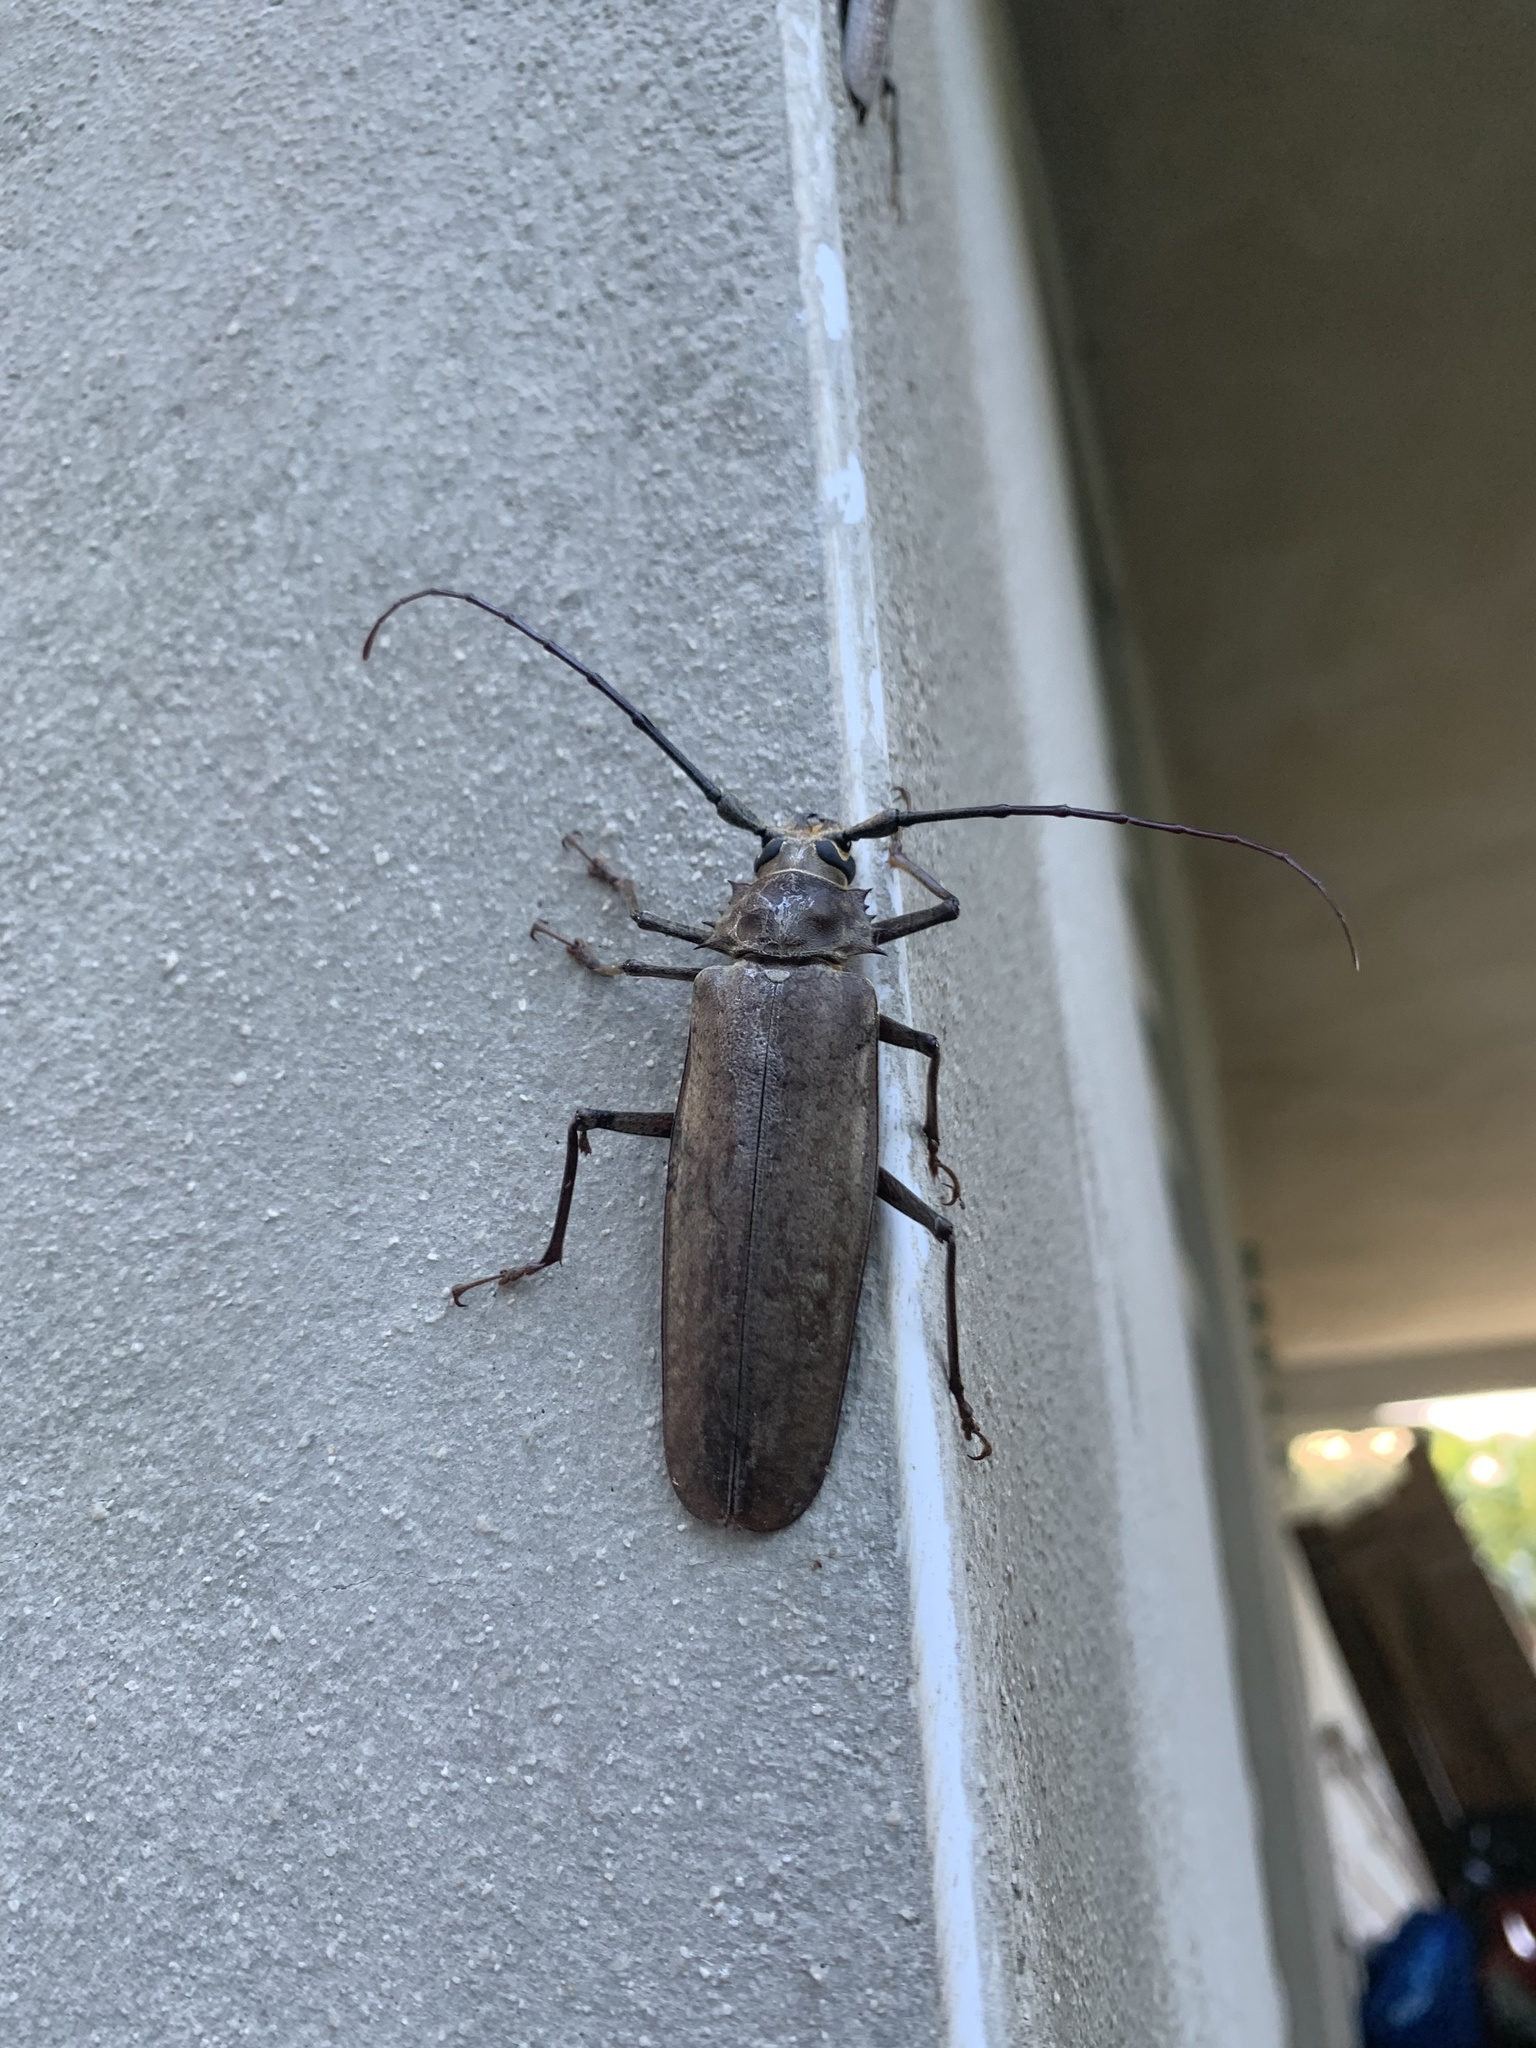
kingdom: Animalia
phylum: Arthropoda
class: Insecta
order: Coleoptera
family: Cerambycidae
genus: Callipogon
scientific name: Callipogon sericeus
